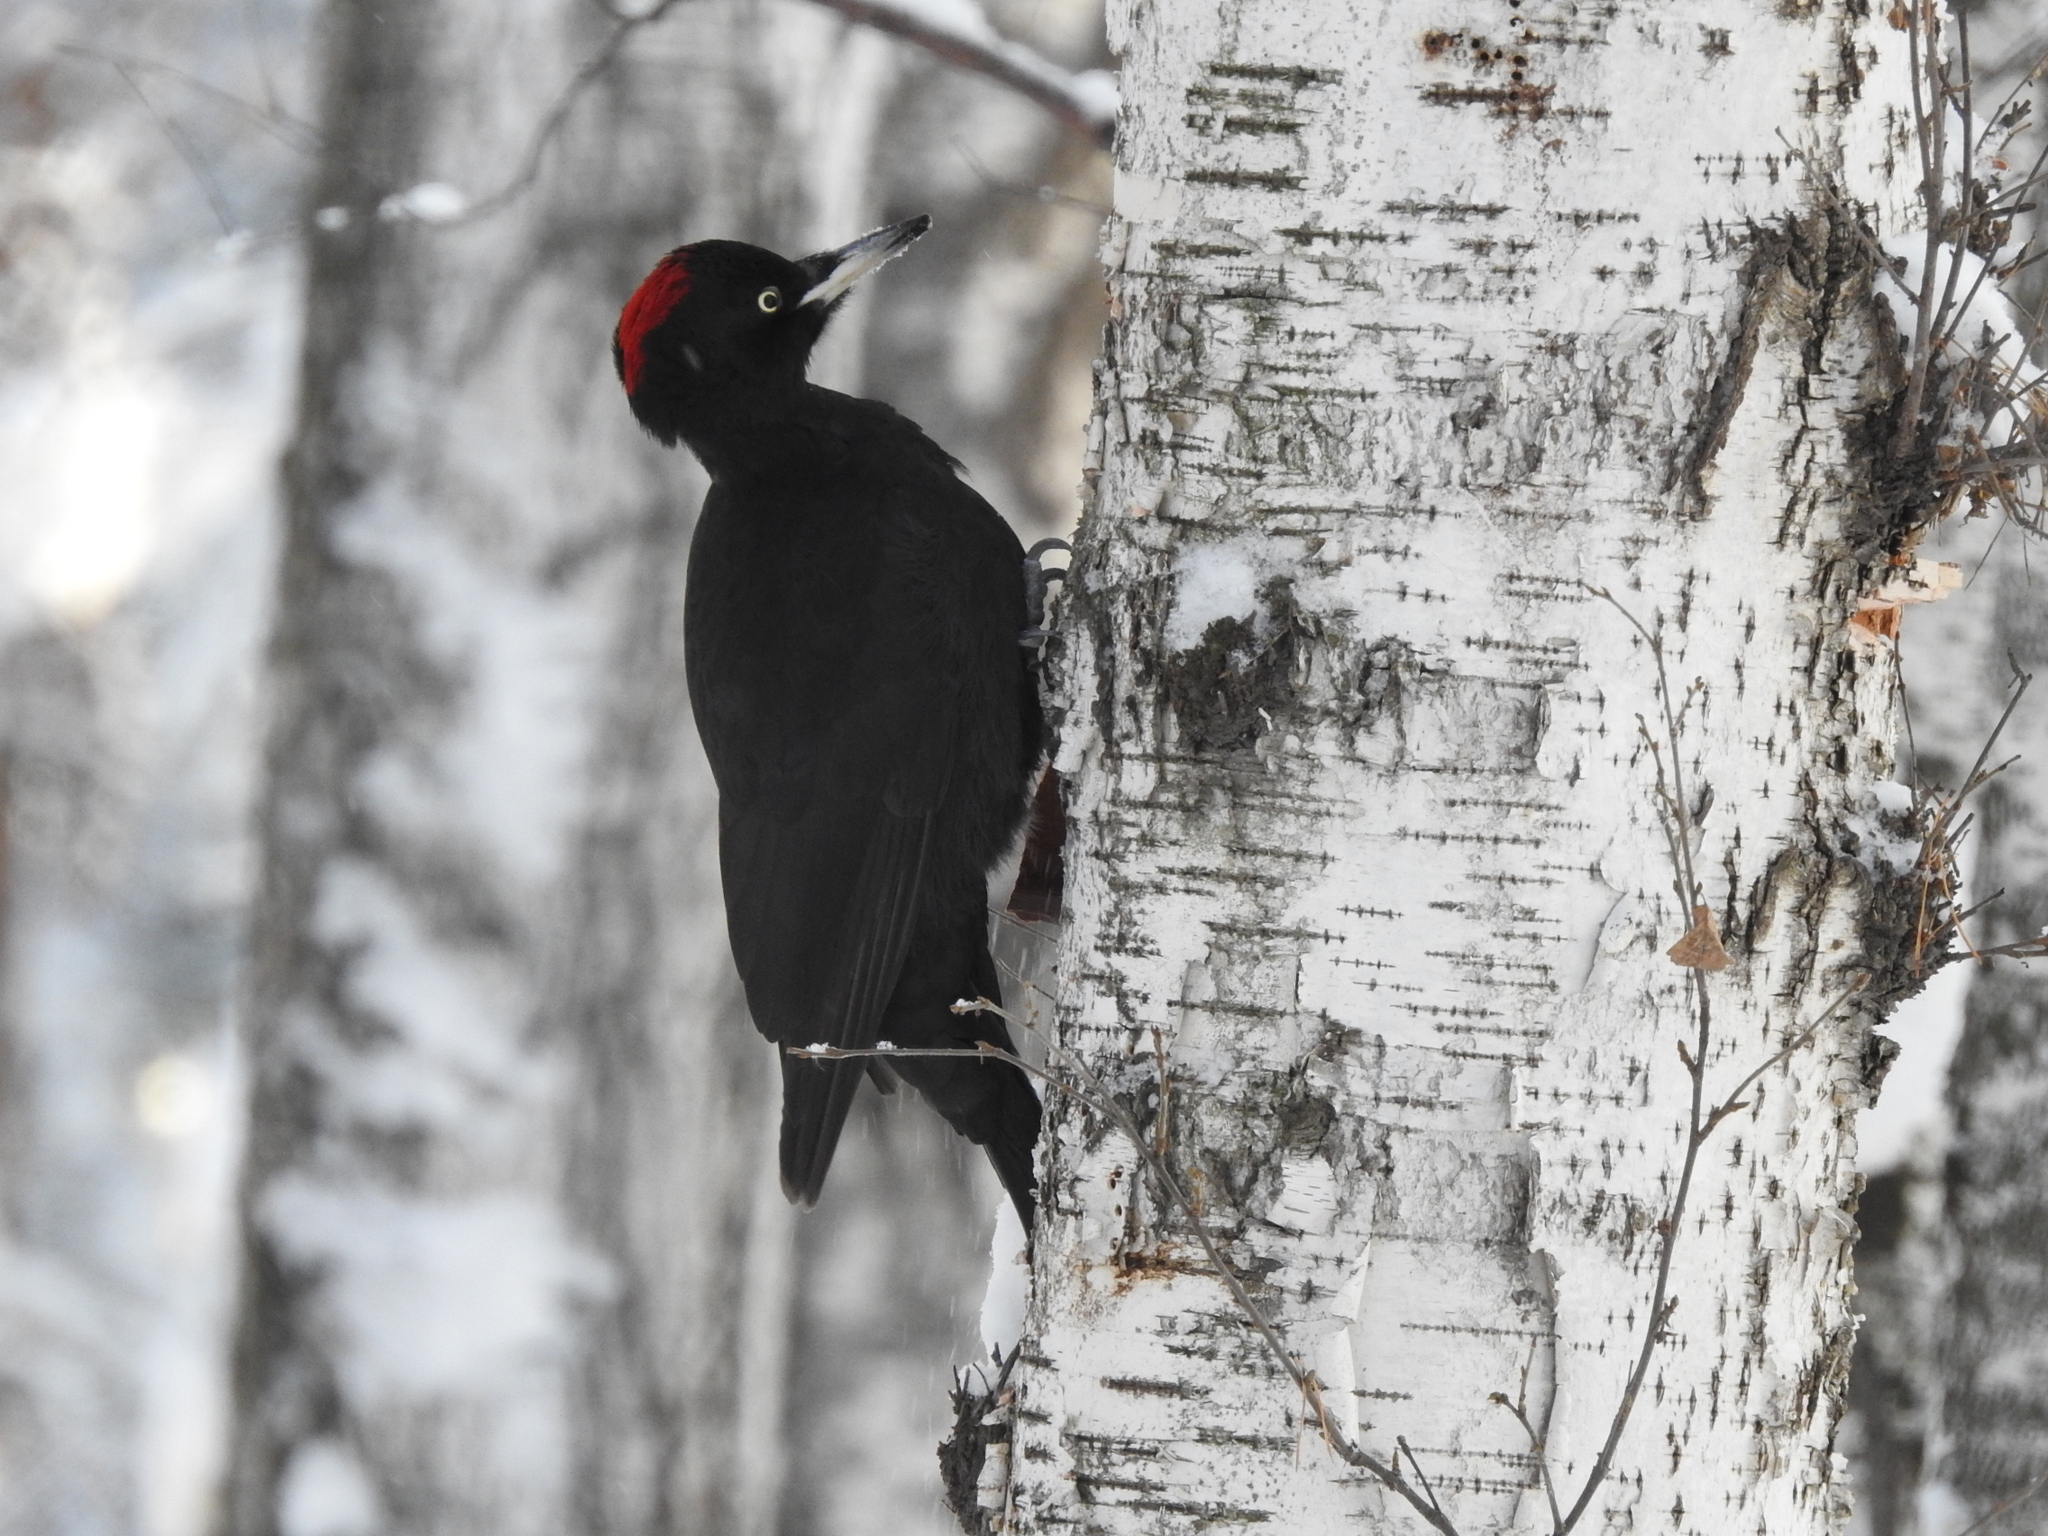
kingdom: Animalia
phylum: Chordata
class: Aves
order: Piciformes
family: Picidae
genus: Dryocopus
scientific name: Dryocopus martius
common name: Black woodpecker
